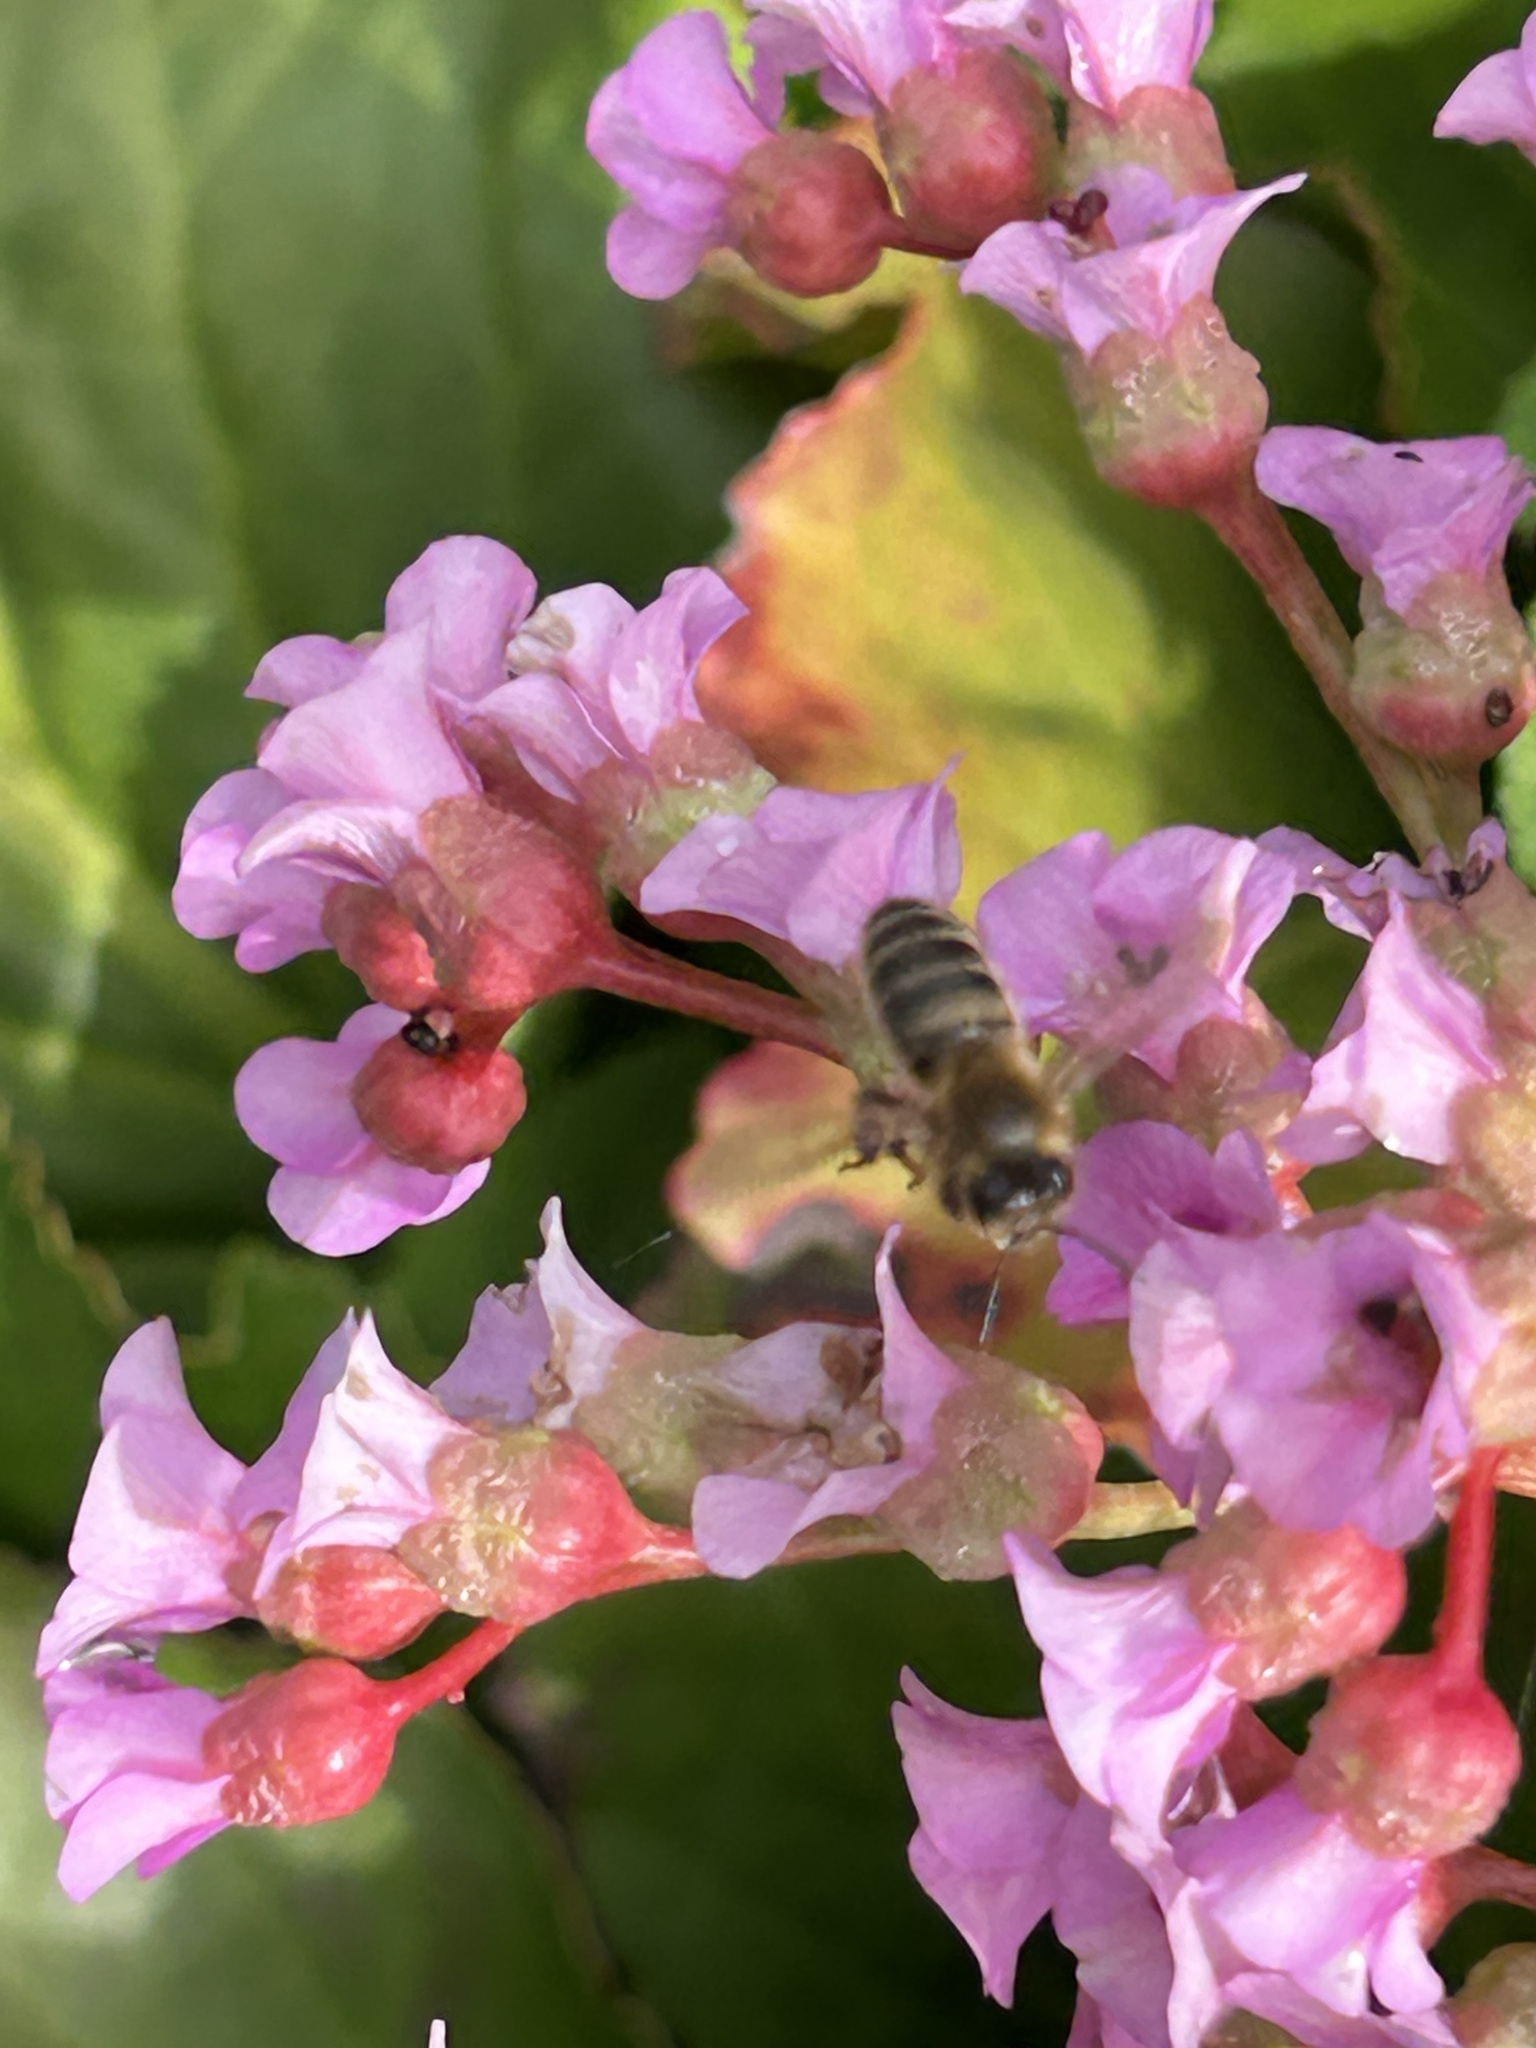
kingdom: Animalia
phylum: Arthropoda
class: Insecta
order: Hymenoptera
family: Apidae
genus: Apis
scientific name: Apis mellifera
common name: Honey bee
